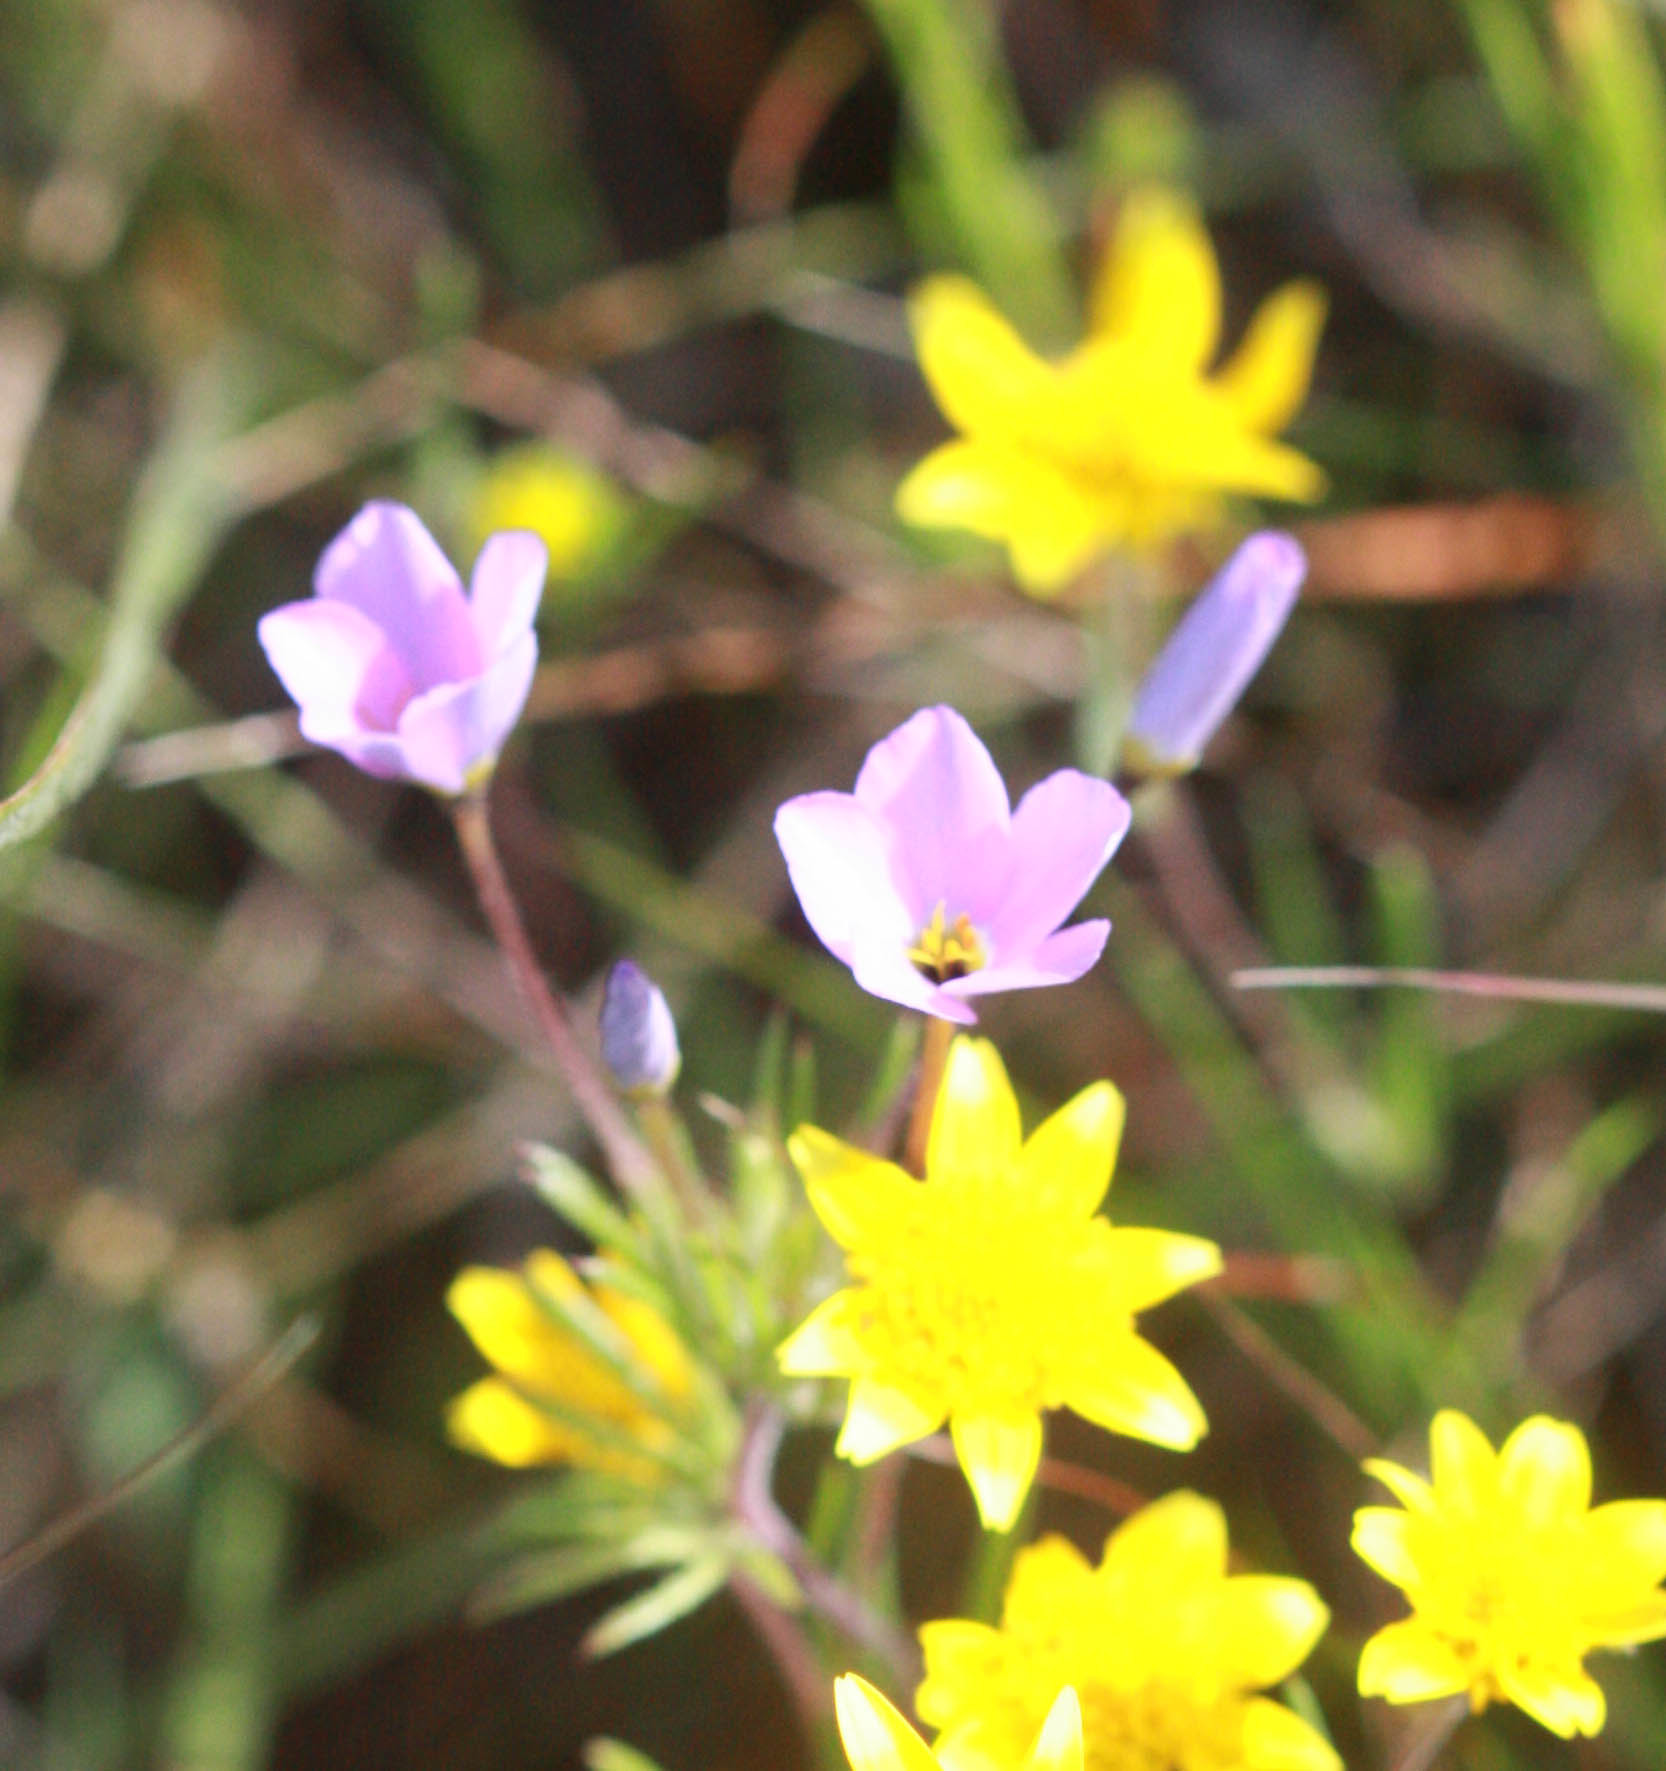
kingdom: Plantae
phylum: Tracheophyta
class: Magnoliopsida
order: Ericales
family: Polemoniaceae
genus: Leptosiphon
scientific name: Leptosiphon androsaceus
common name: False babystars
